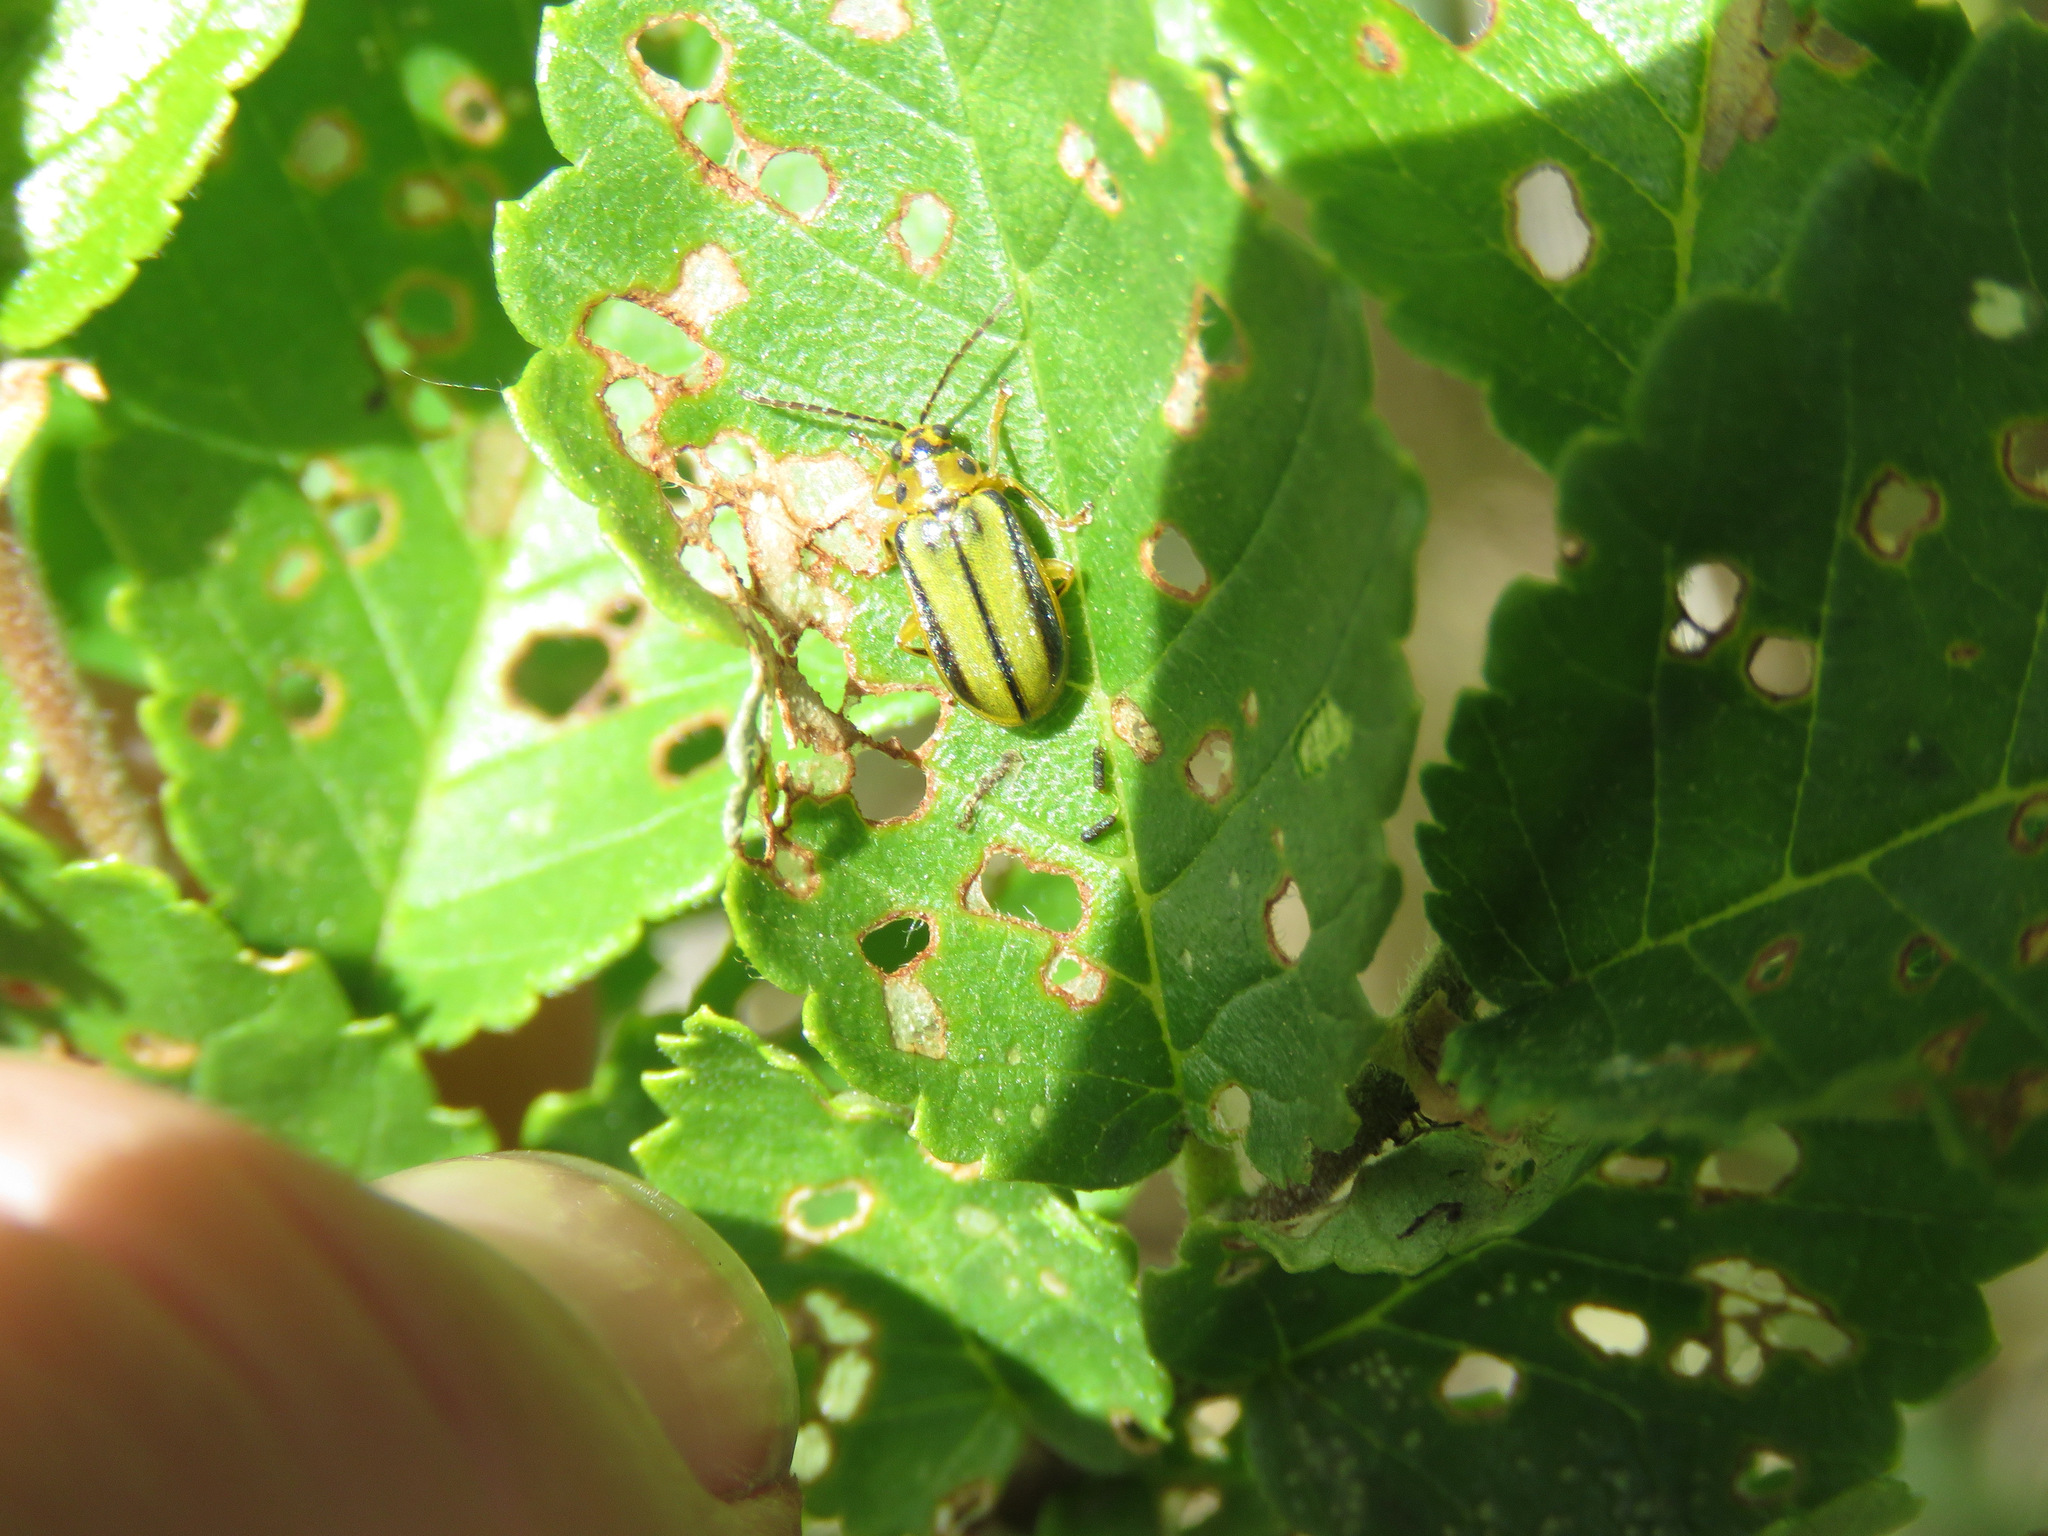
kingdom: Animalia
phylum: Arthropoda
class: Insecta
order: Coleoptera
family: Chrysomelidae
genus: Xanthogaleruca
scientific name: Xanthogaleruca luteola
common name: Elm leaf beetle
